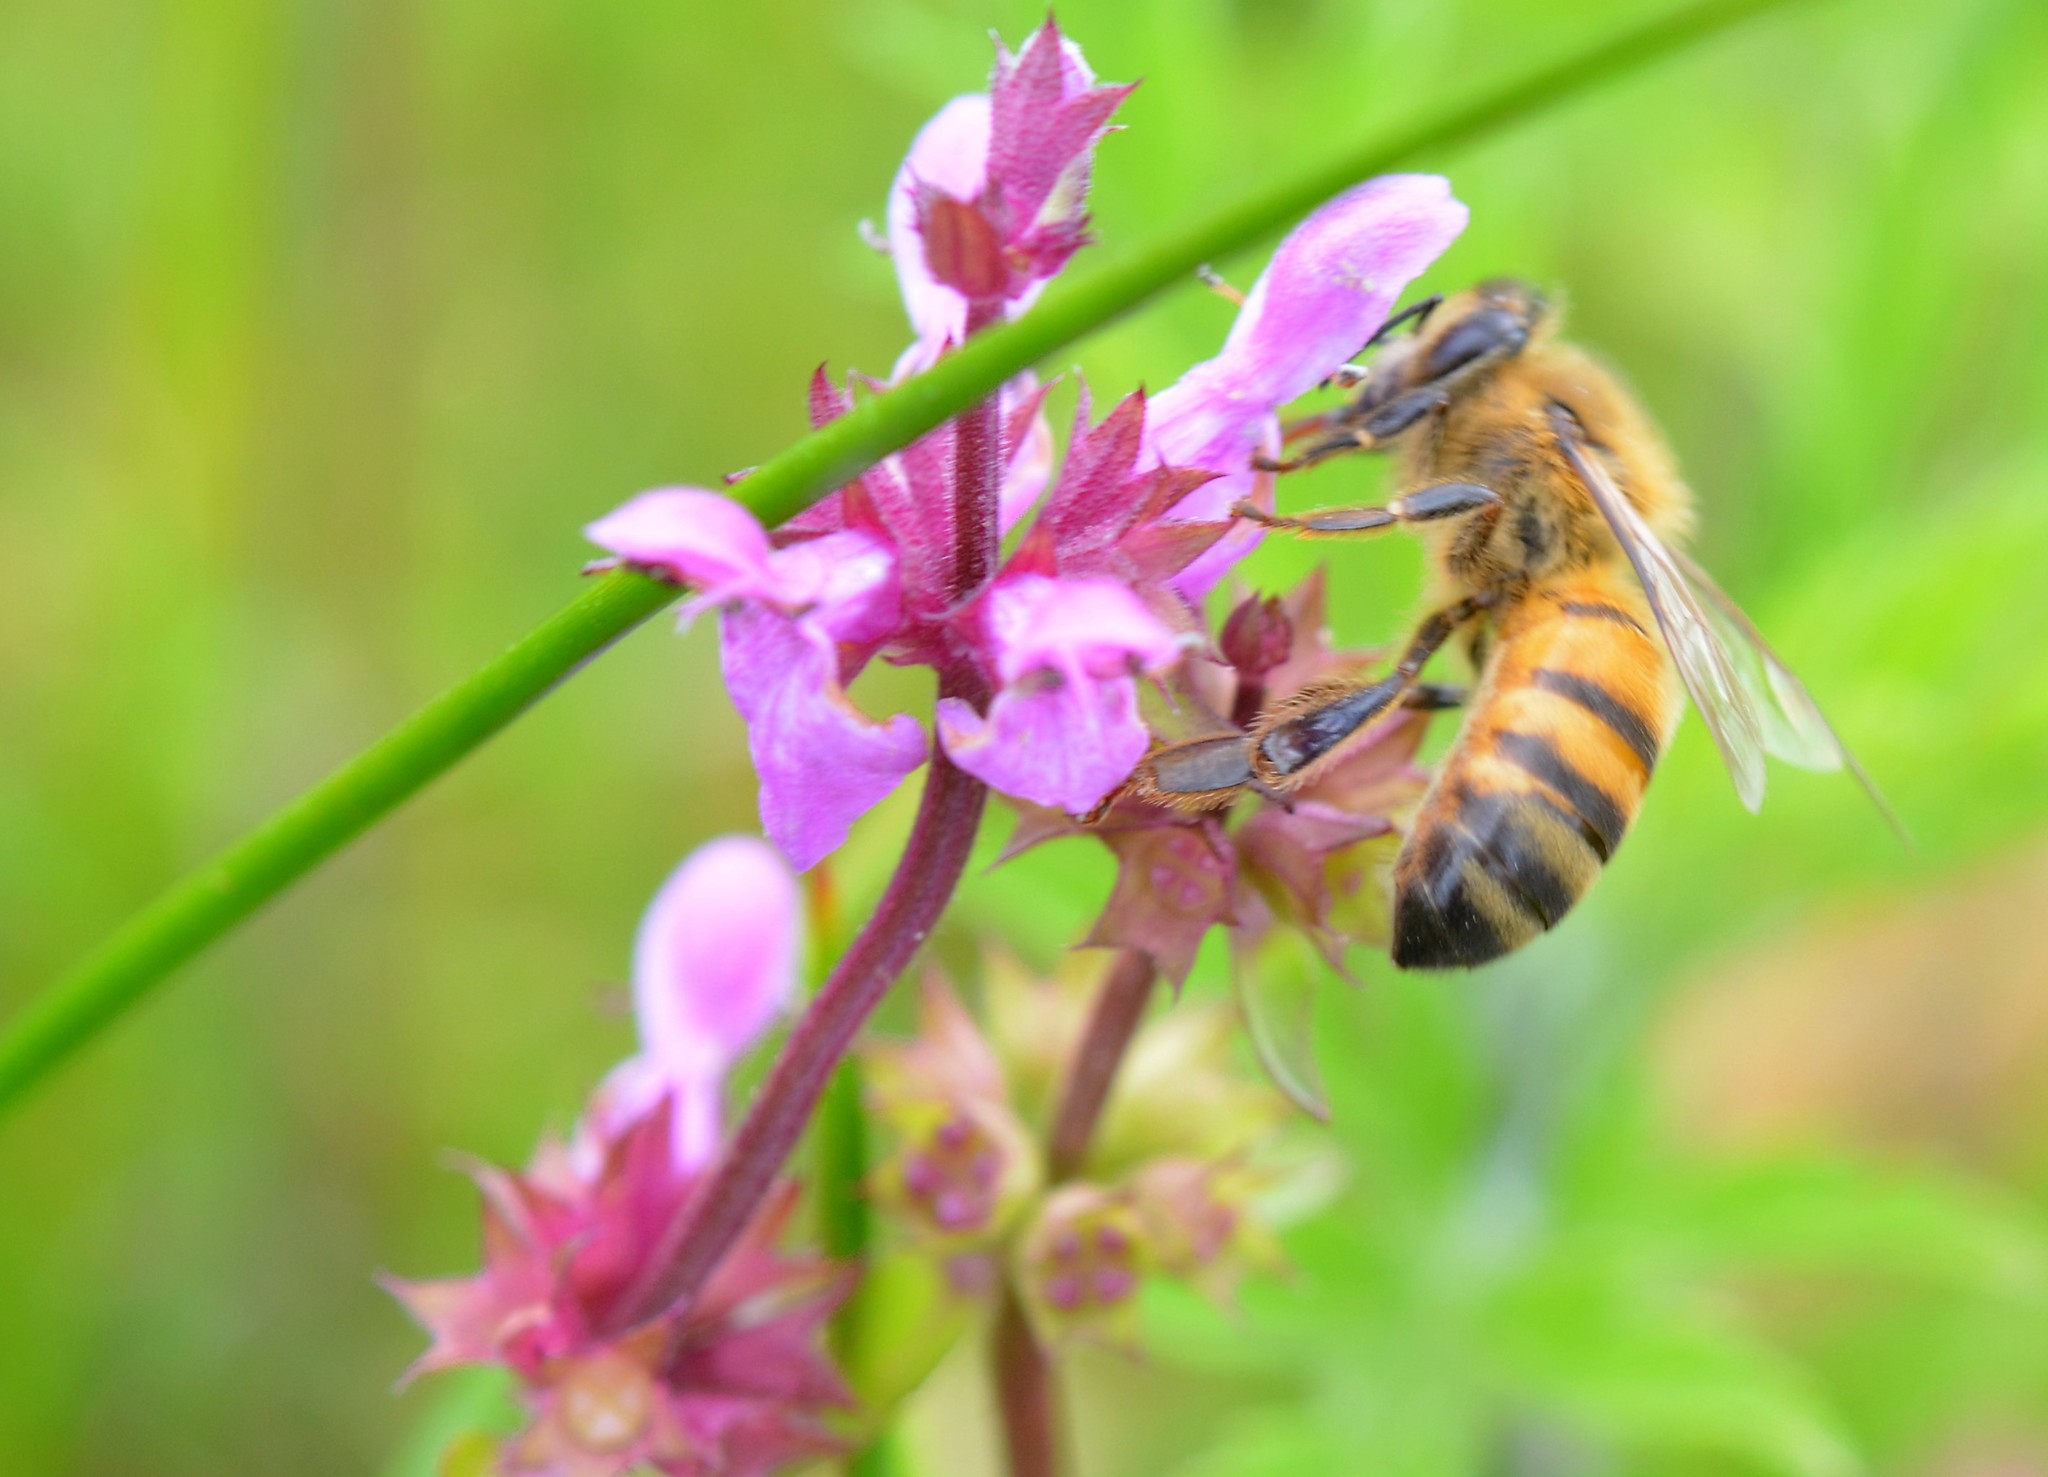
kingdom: Animalia
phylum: Arthropoda
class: Insecta
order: Hymenoptera
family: Apidae
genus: Apis
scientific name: Apis mellifera
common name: Honey bee
